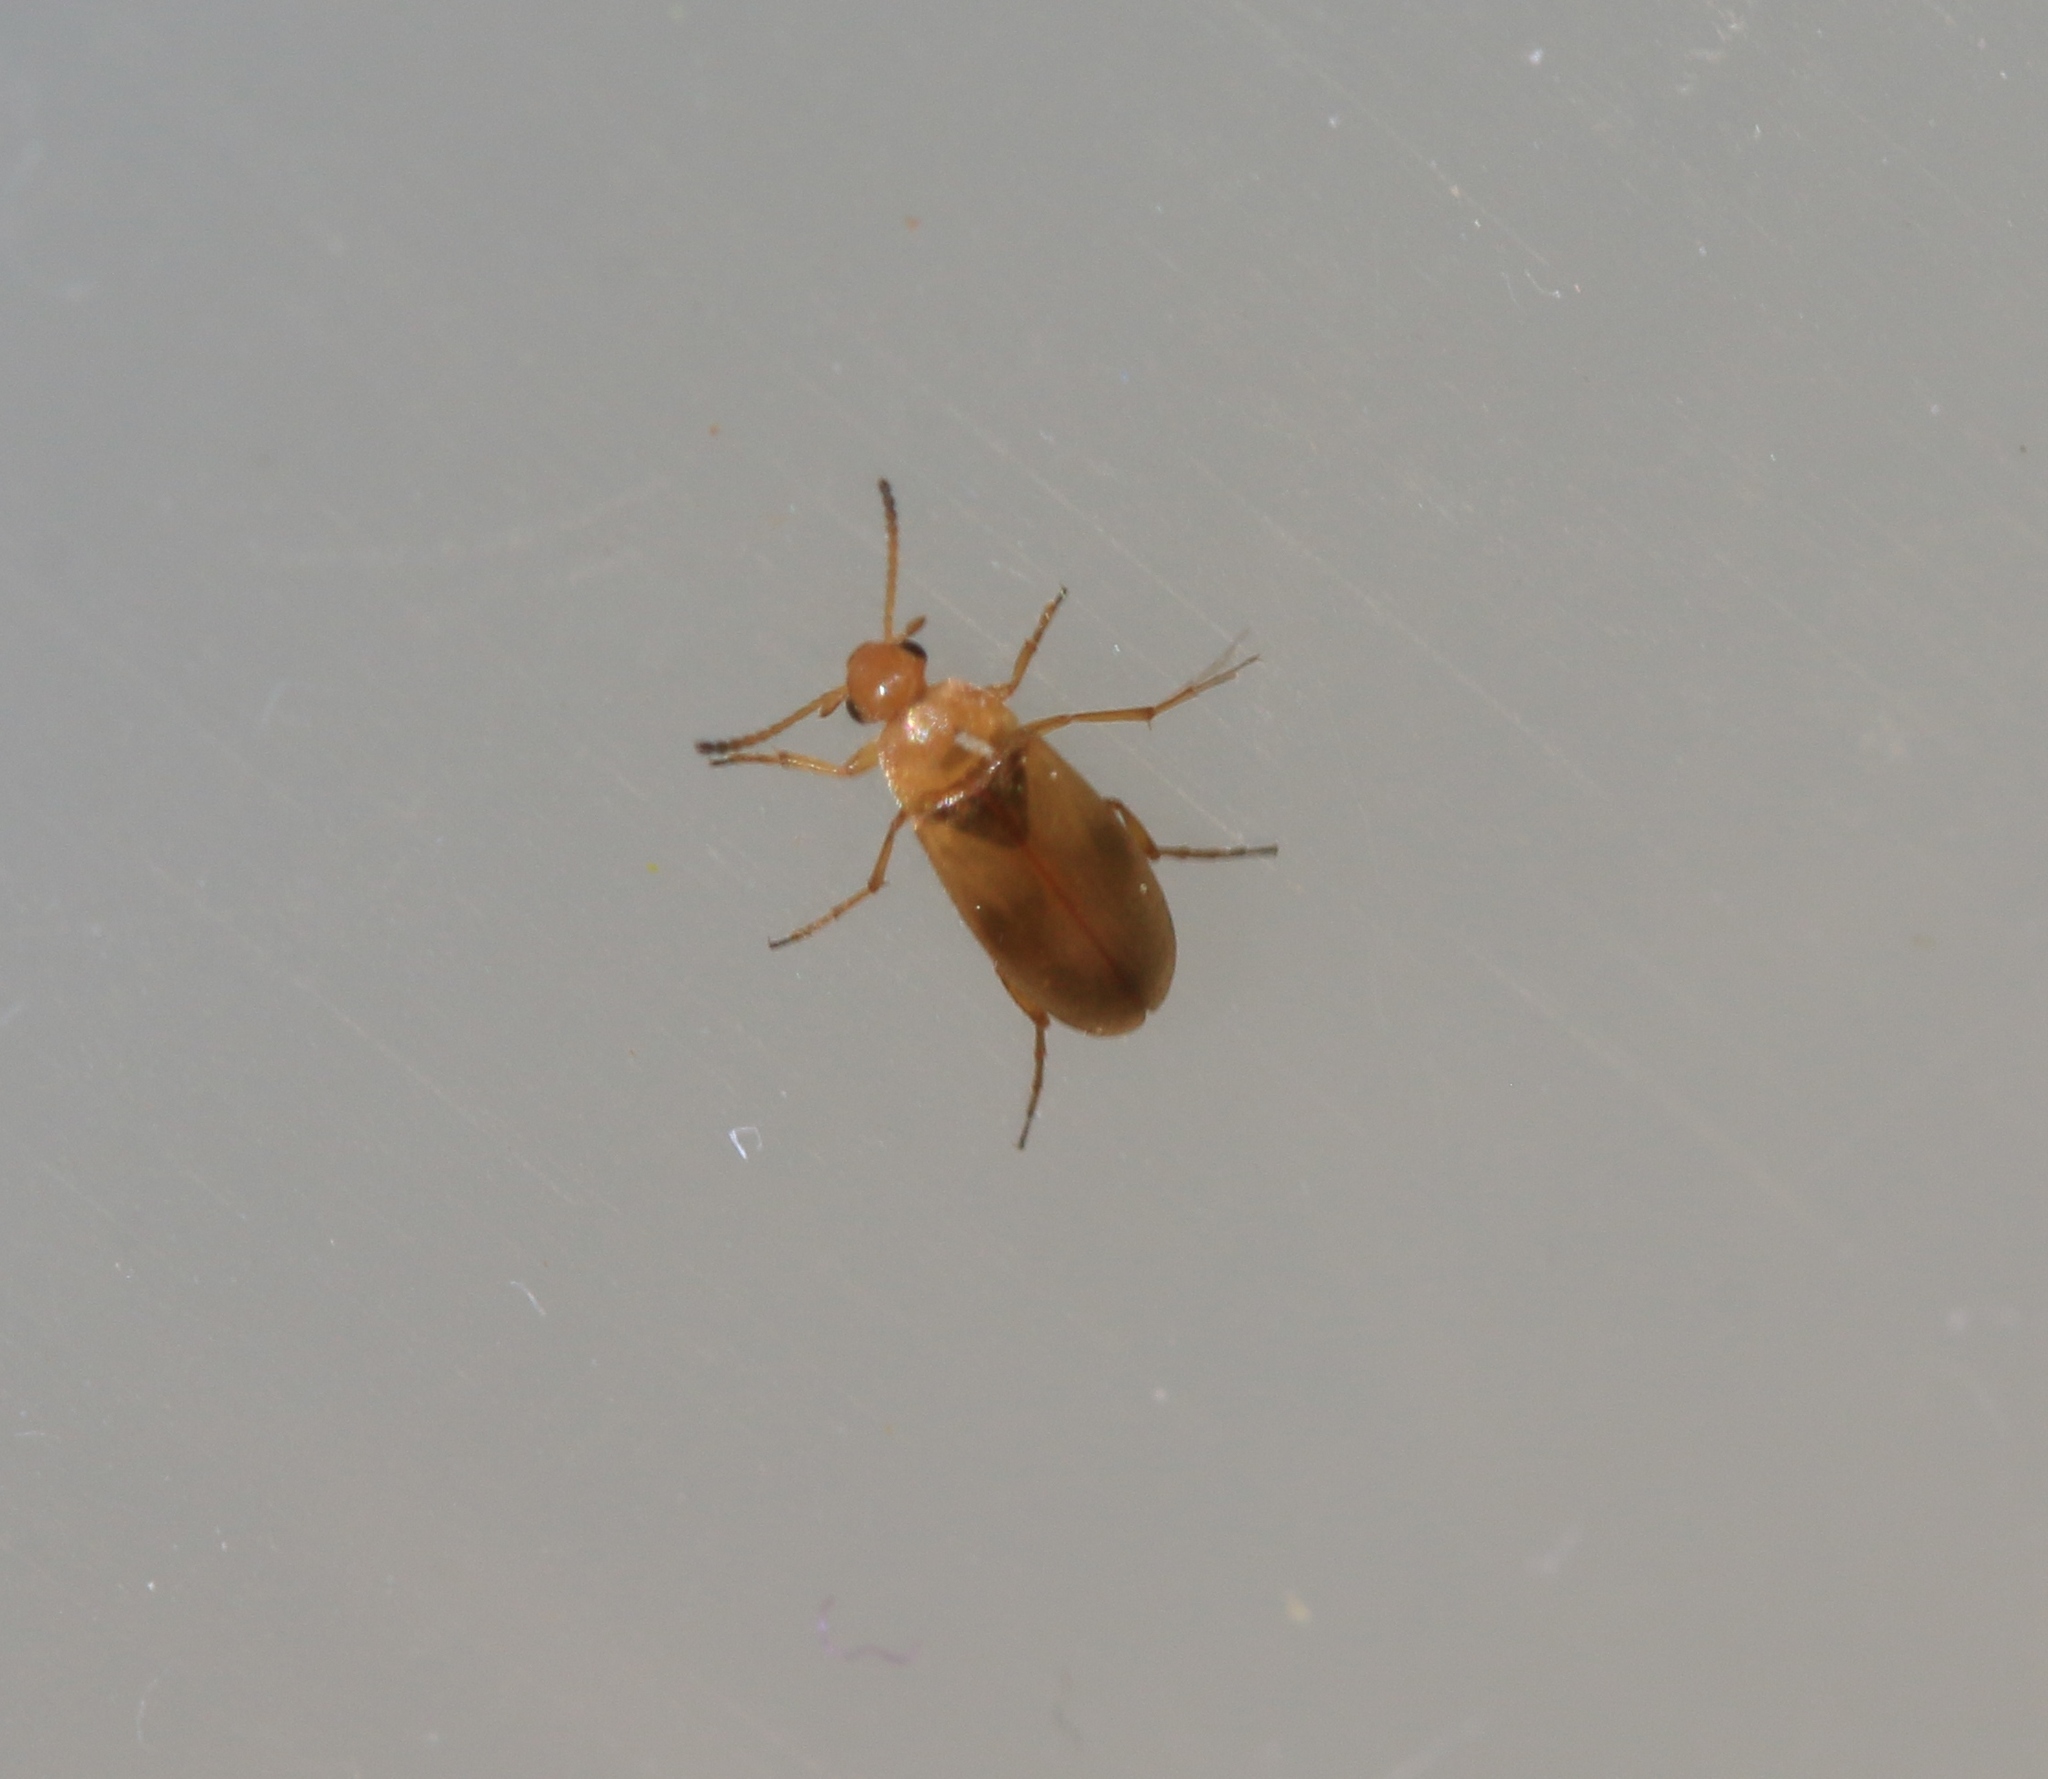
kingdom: Animalia
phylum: Arthropoda
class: Insecta
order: Coleoptera
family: Scraptiidae
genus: Anaspis
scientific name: Anaspis maculata
